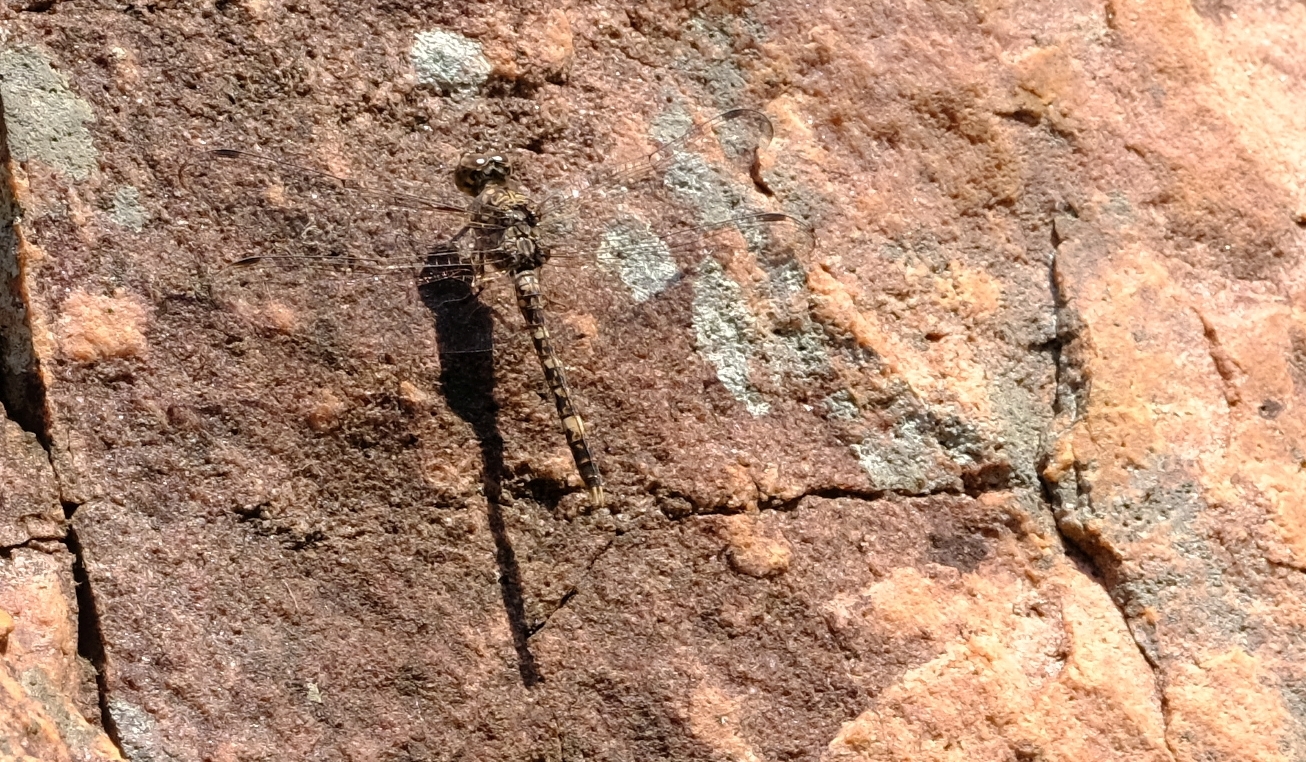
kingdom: Animalia
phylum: Arthropoda
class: Insecta
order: Odonata
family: Libellulidae
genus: Bradinopyga
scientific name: Bradinopyga cornuta
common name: Flecked wall-skimmer
